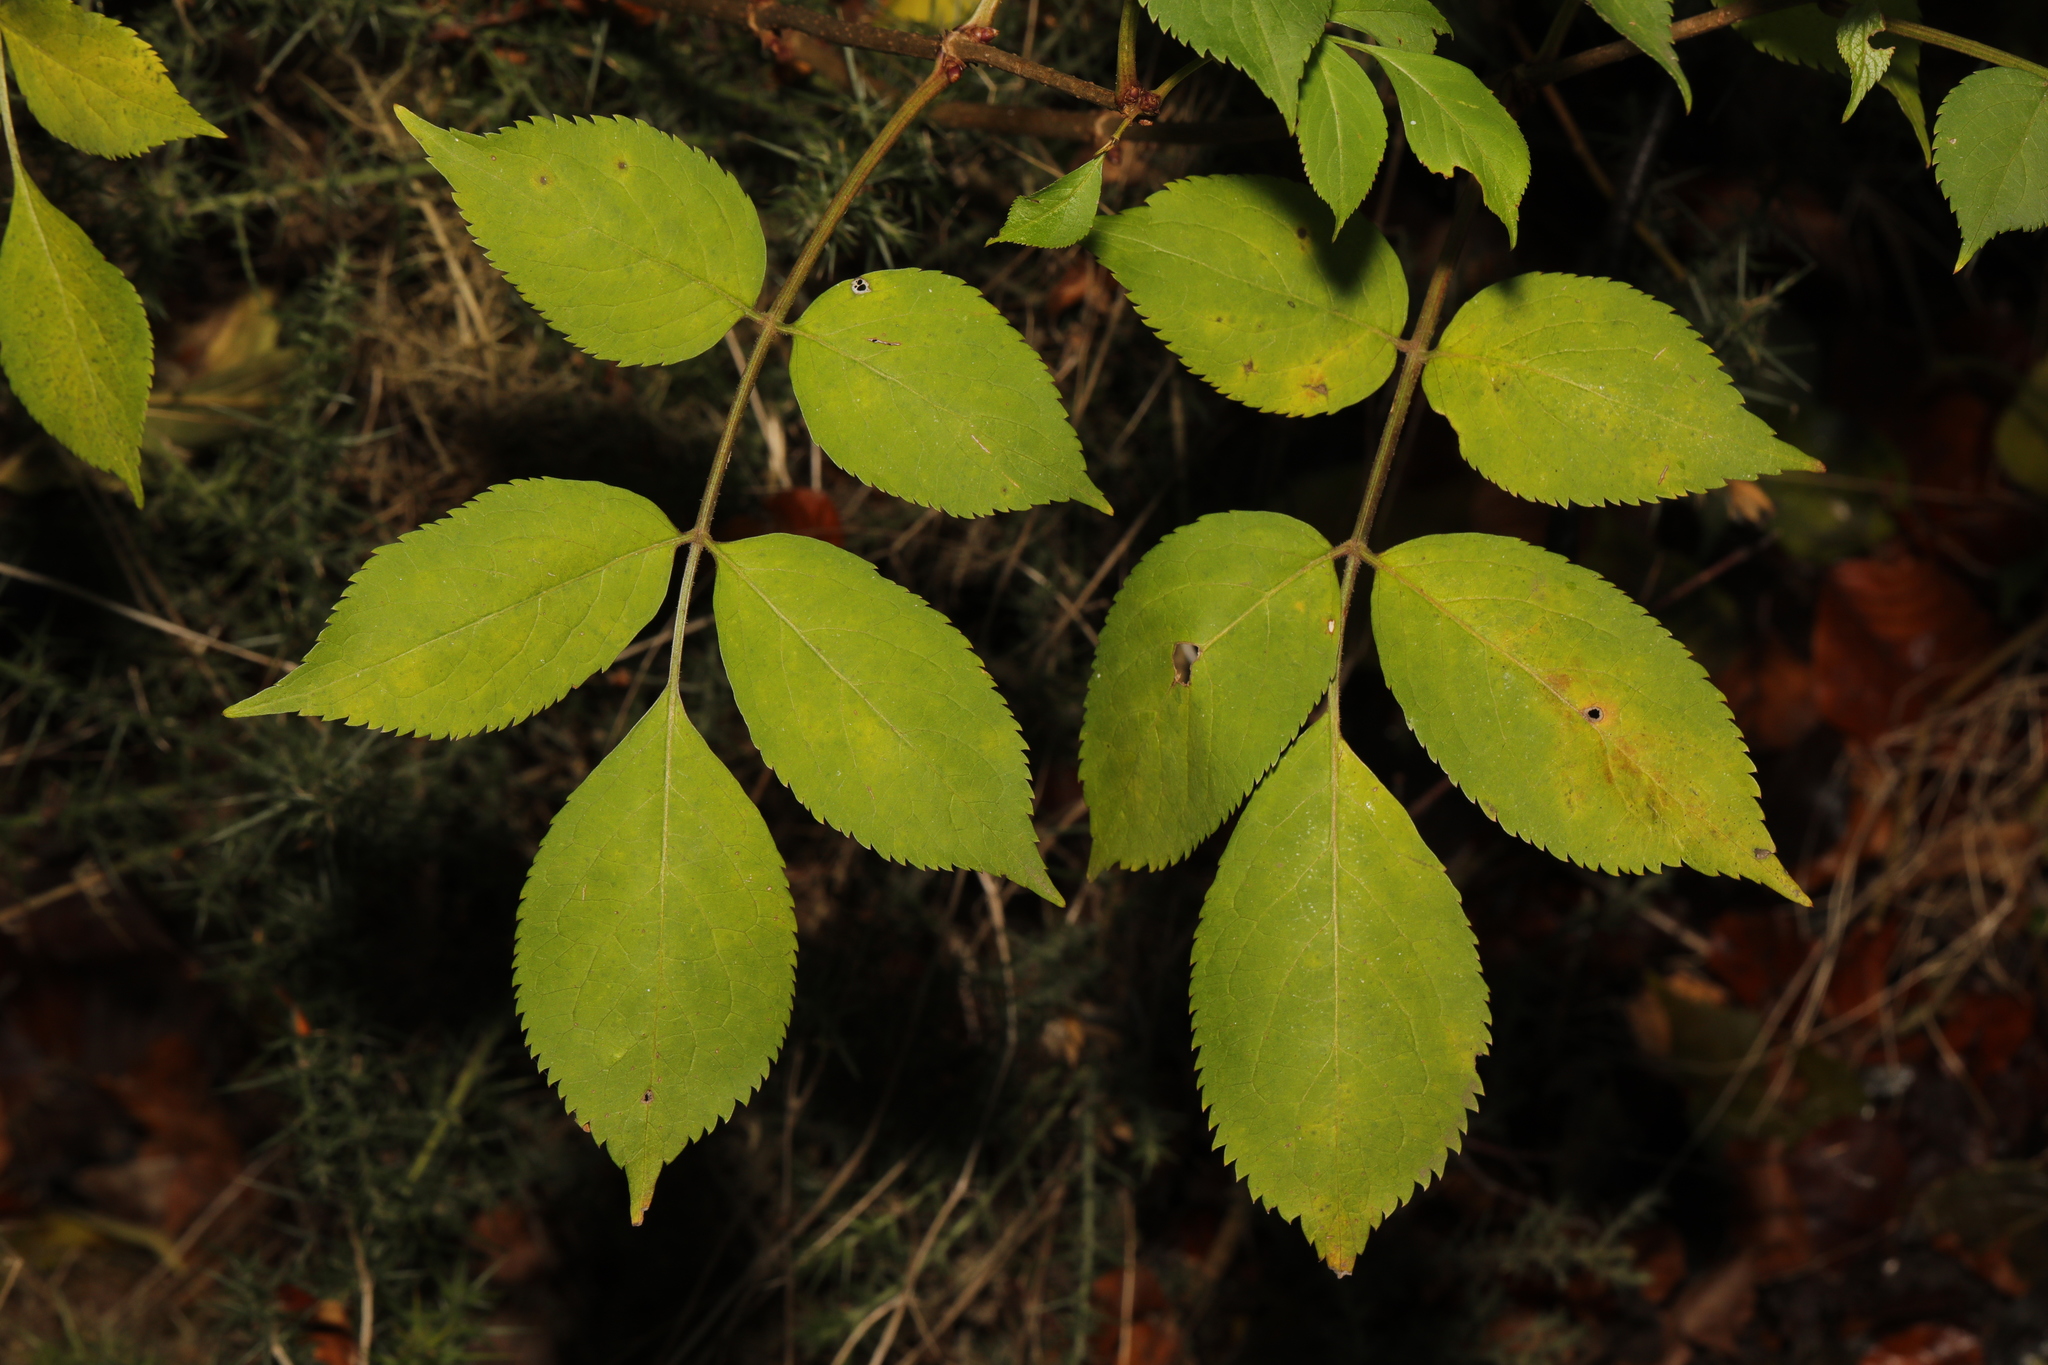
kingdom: Plantae
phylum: Tracheophyta
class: Magnoliopsida
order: Dipsacales
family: Viburnaceae
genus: Sambucus
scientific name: Sambucus nigra
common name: Elder
